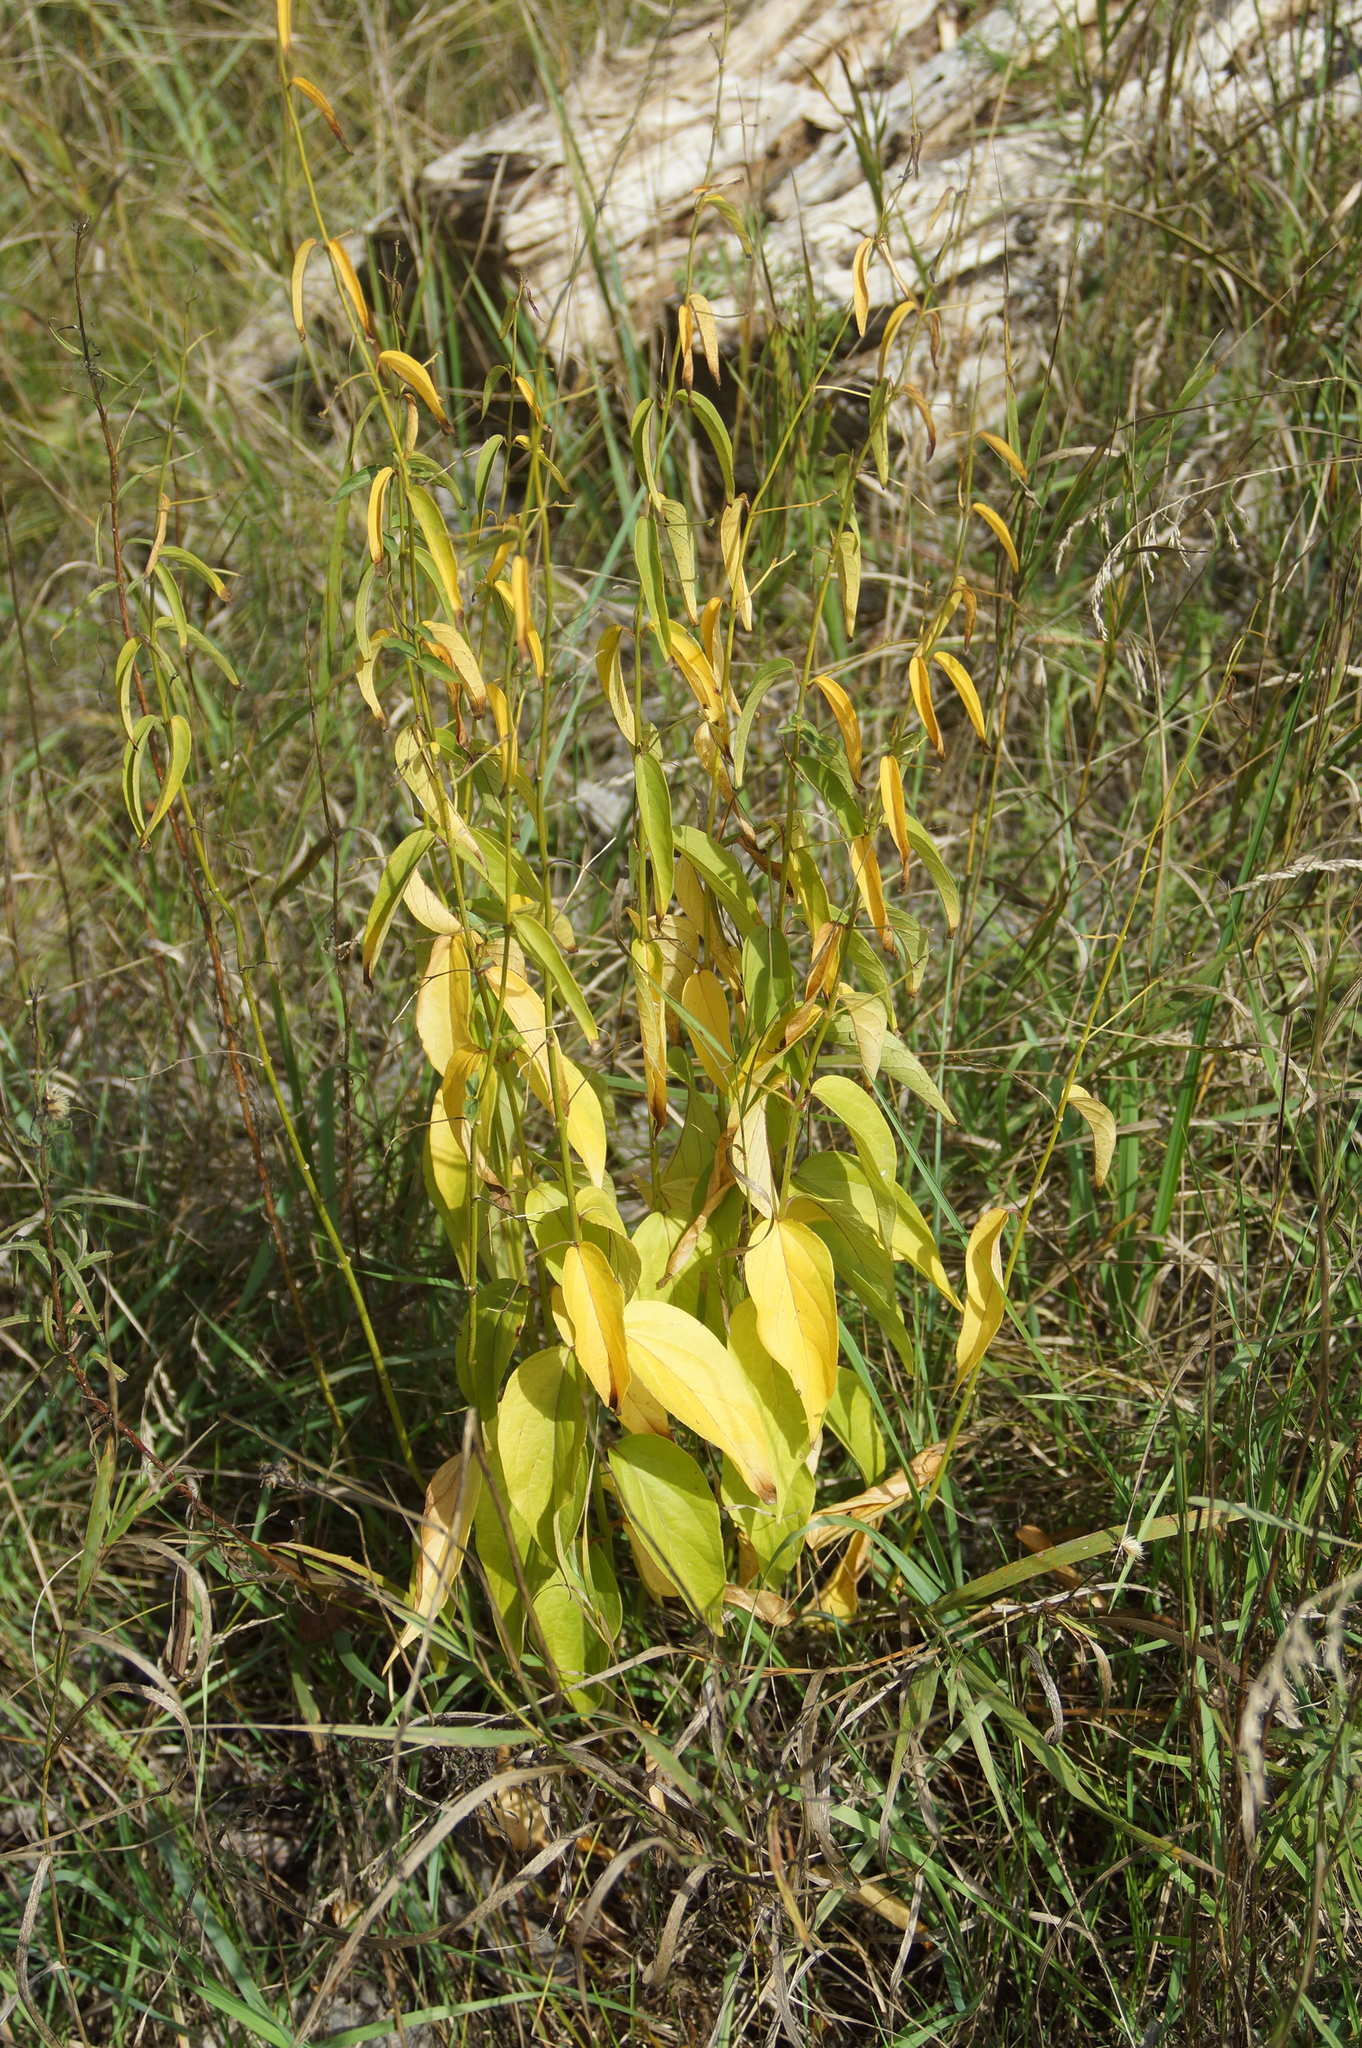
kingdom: Plantae
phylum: Tracheophyta
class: Magnoliopsida
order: Gentianales
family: Apocynaceae
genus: Vincetoxicum
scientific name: Vincetoxicum hirundinaria
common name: White swallowwort
